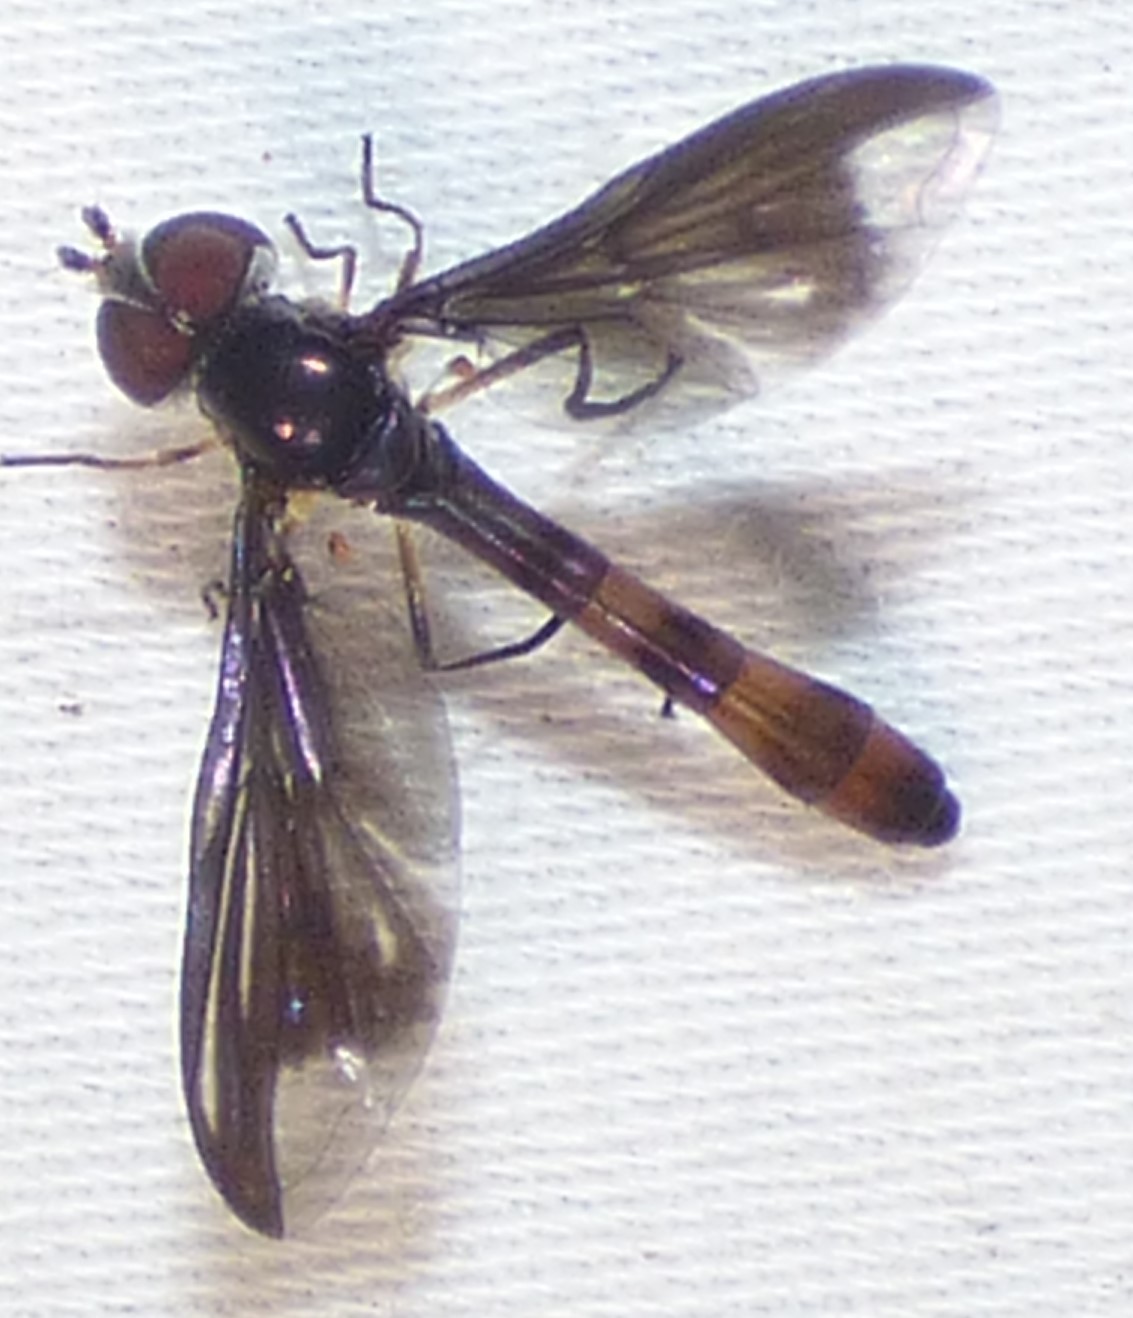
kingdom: Animalia
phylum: Arthropoda
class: Insecta
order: Diptera
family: Syrphidae
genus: Ocyptamus
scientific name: Ocyptamus fuscipennis
